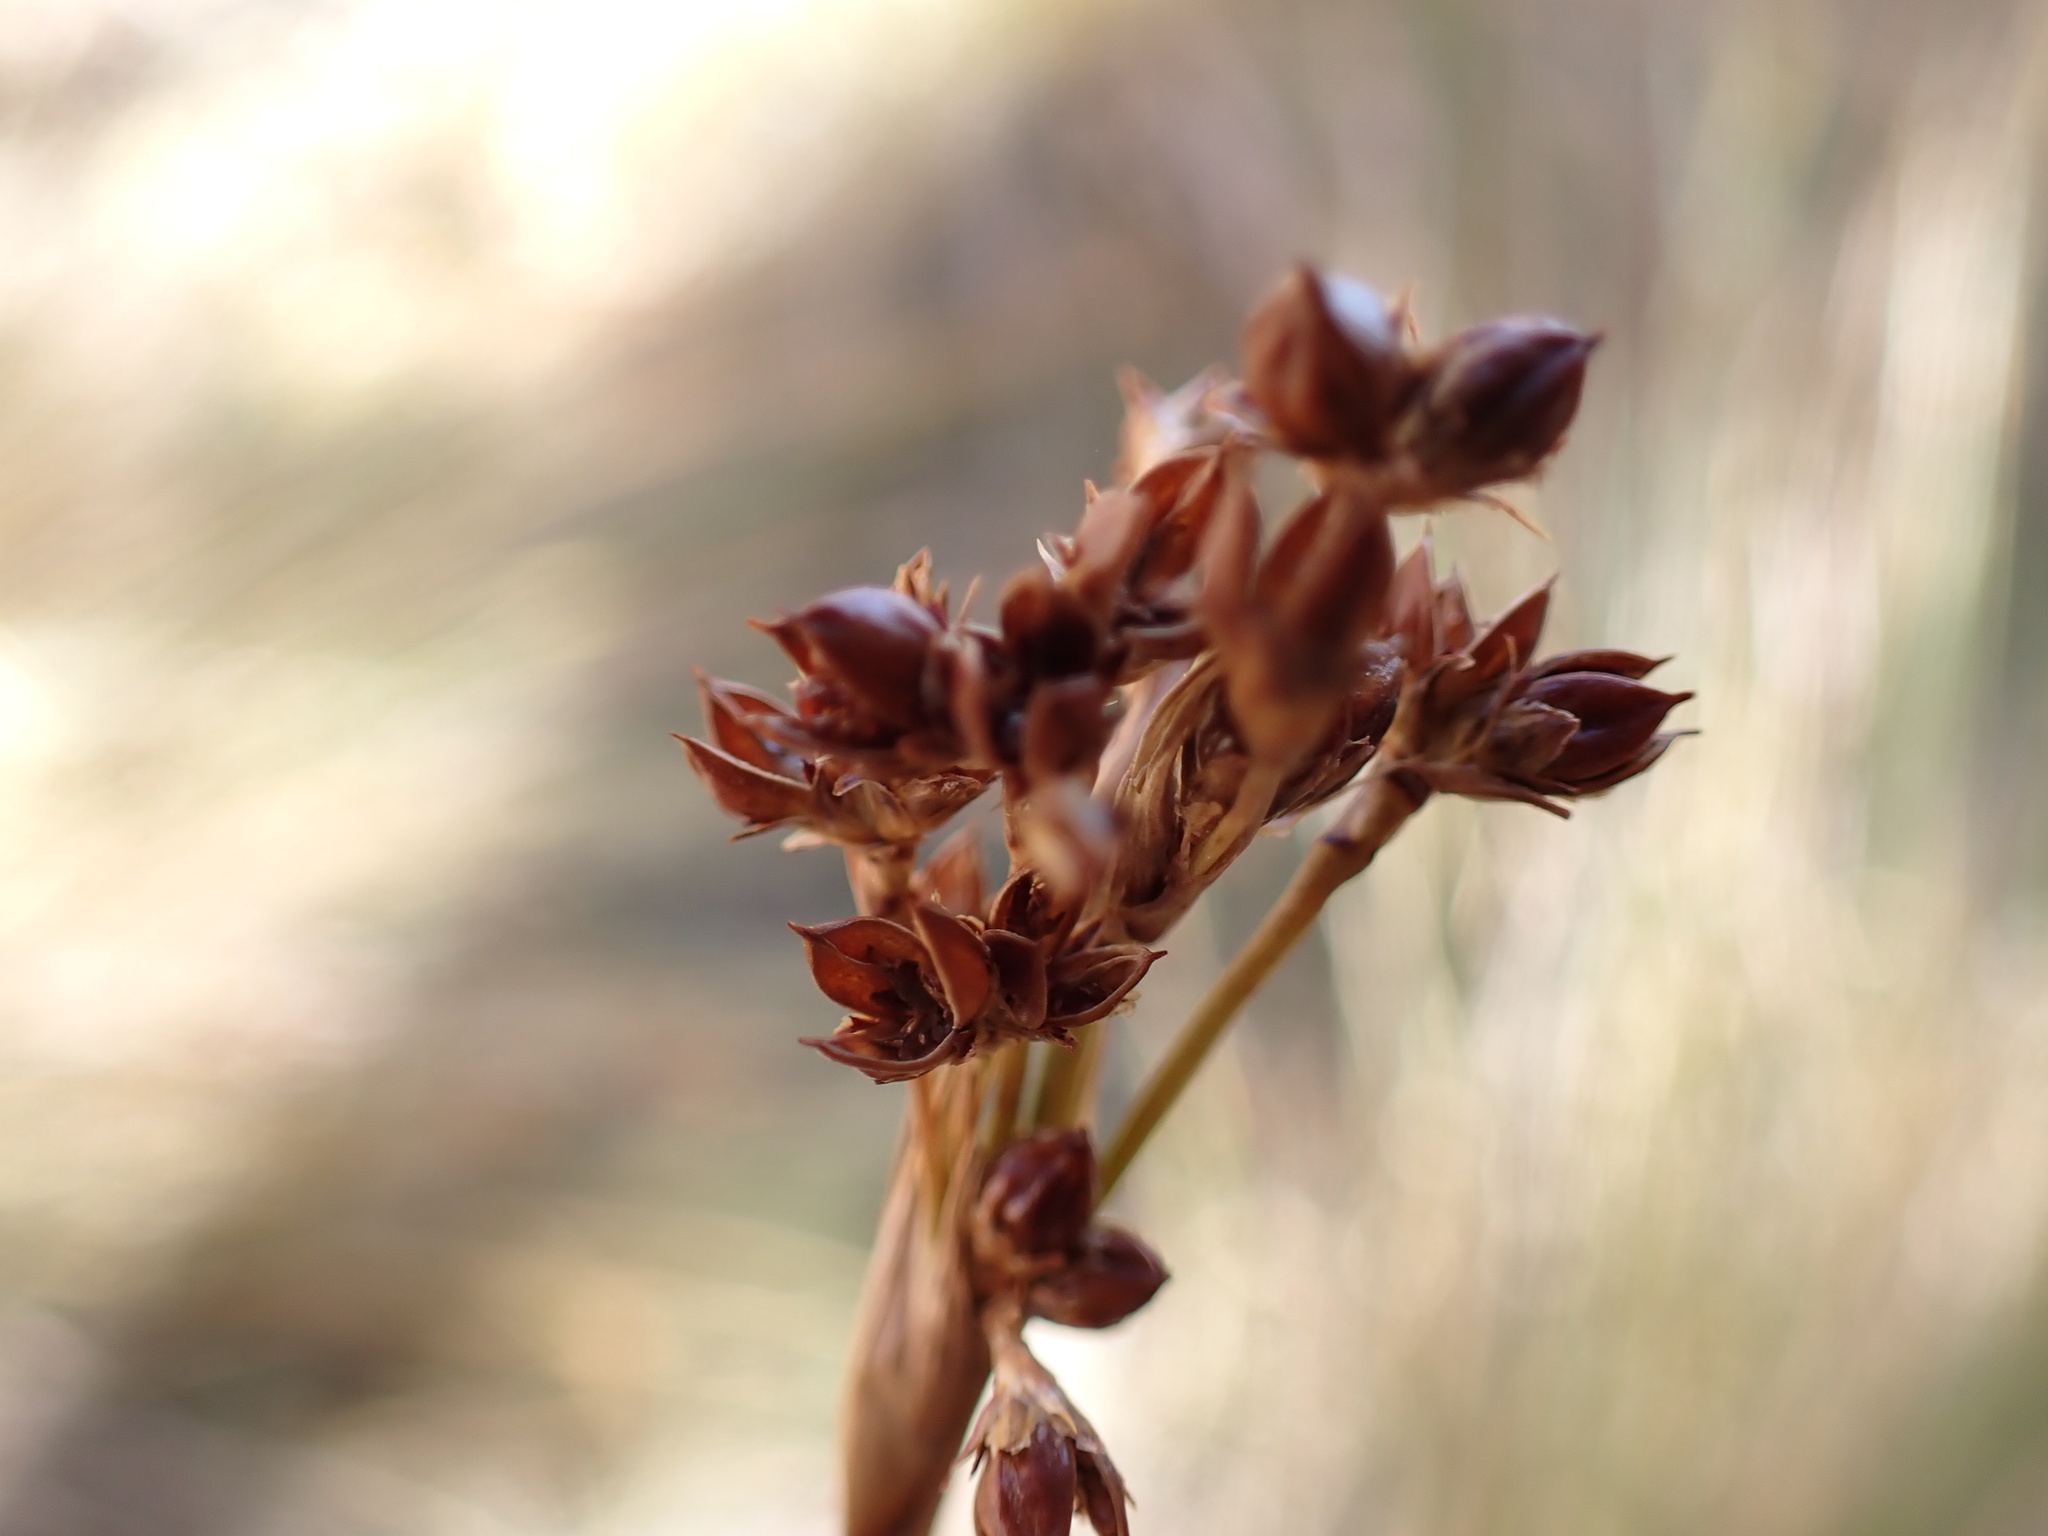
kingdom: Plantae
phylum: Tracheophyta
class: Liliopsida
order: Poales
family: Juncaceae
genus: Juncus
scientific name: Juncus acutus
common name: Sharp rush
